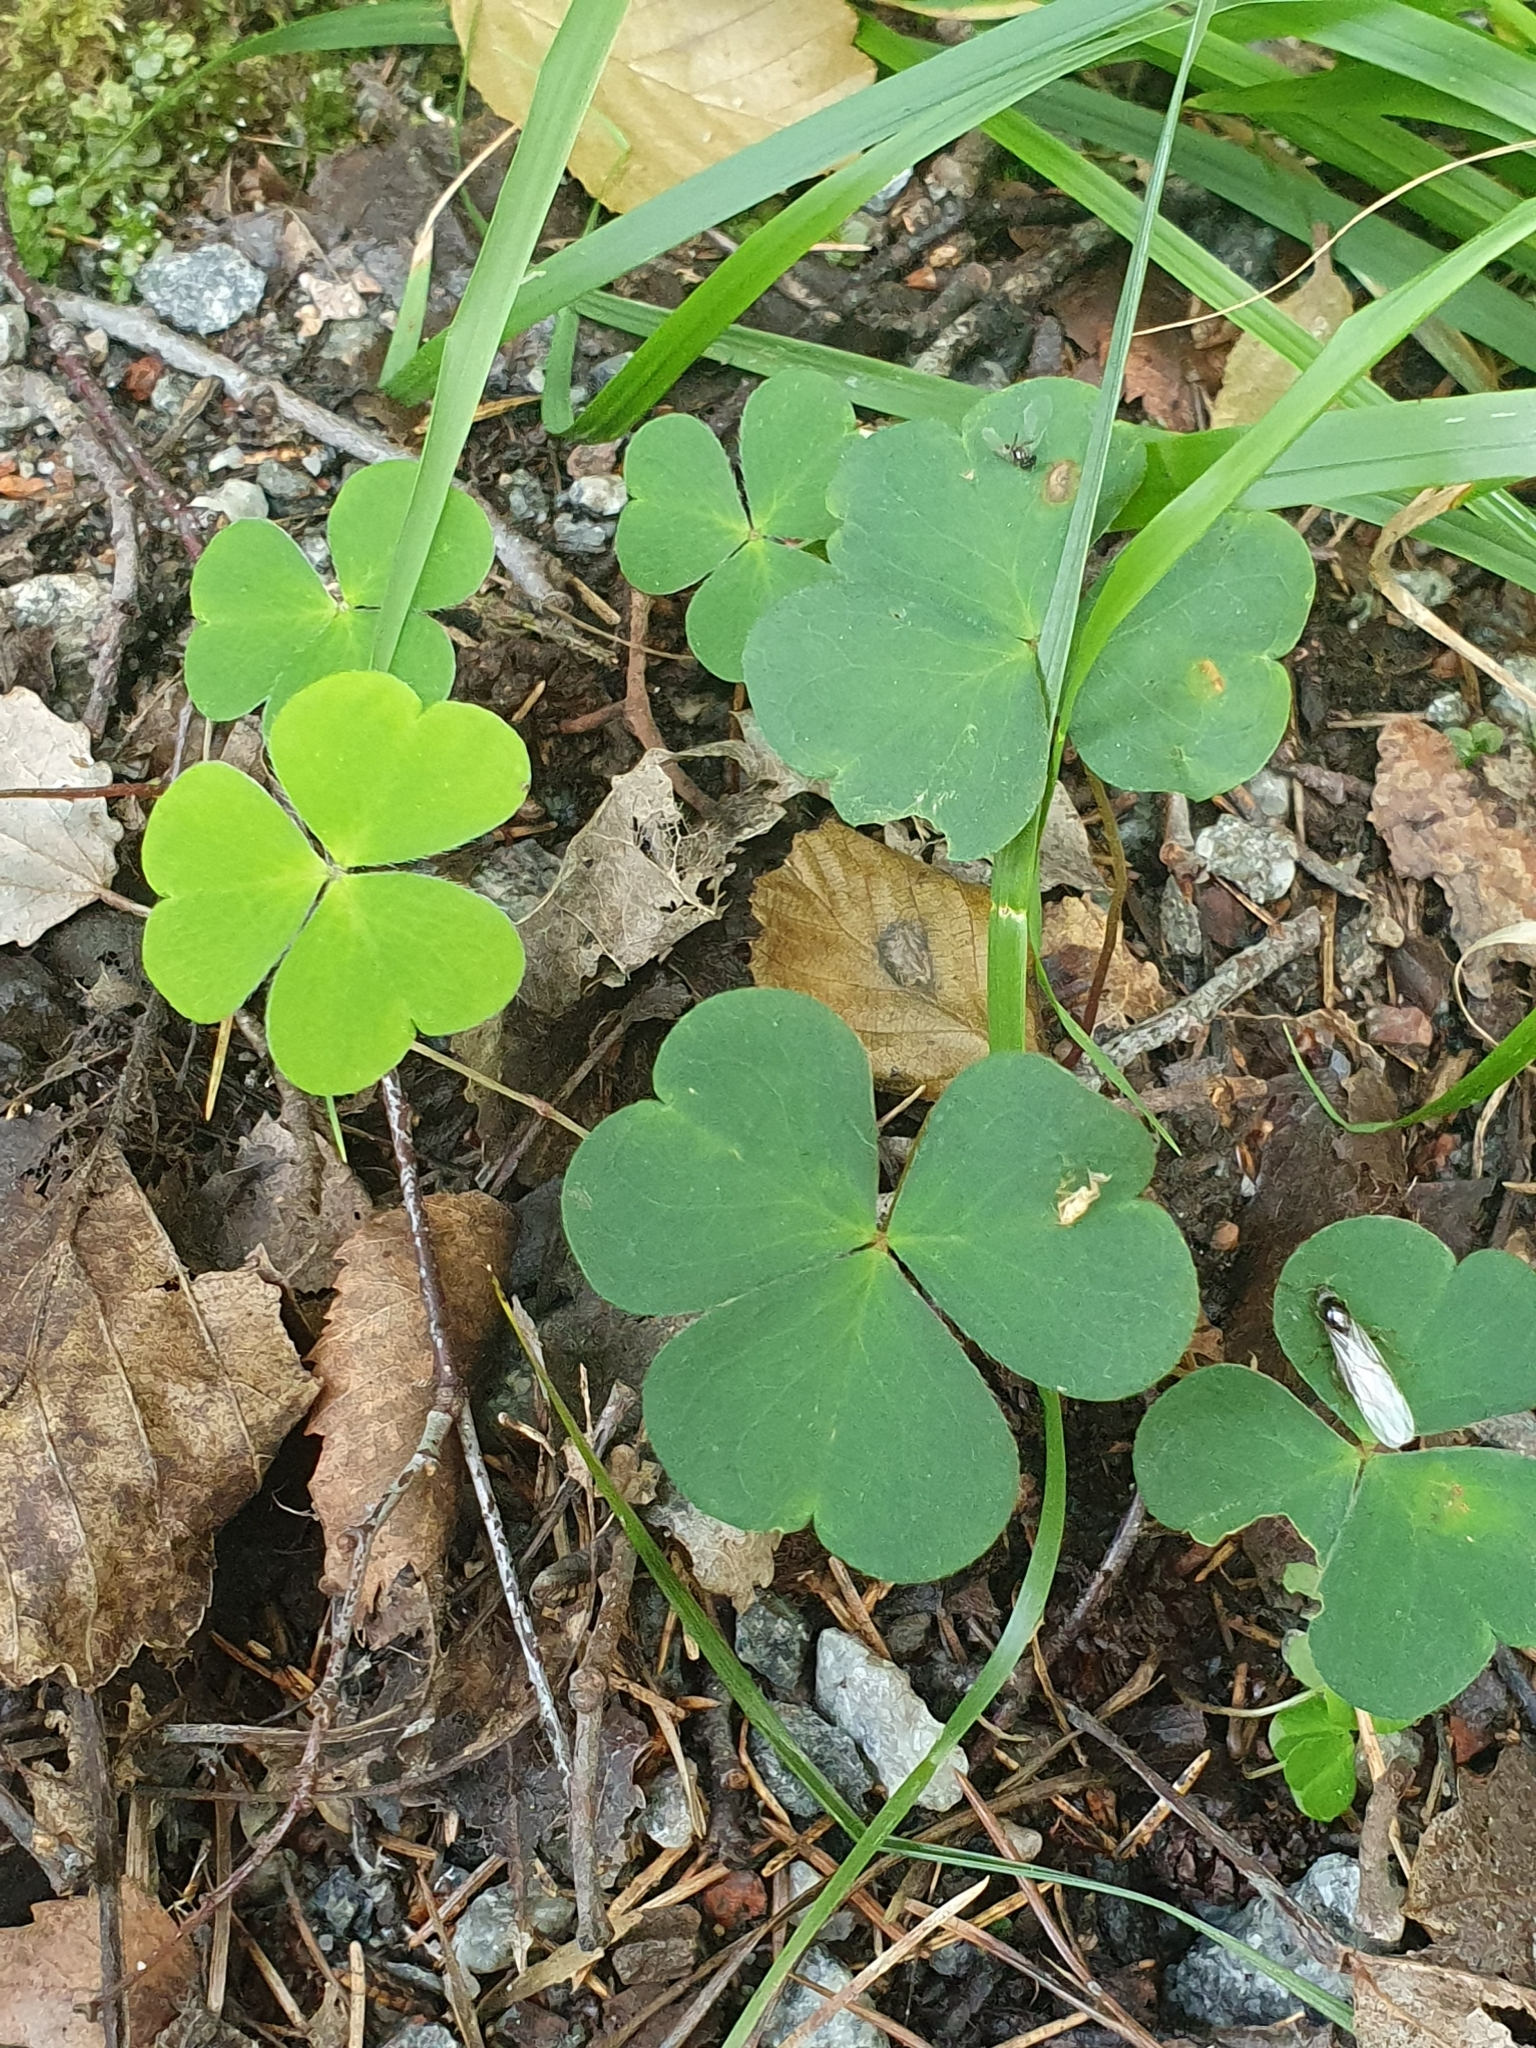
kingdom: Plantae
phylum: Tracheophyta
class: Magnoliopsida
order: Oxalidales
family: Oxalidaceae
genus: Oxalis
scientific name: Oxalis acetosella
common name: Wood-sorrel
